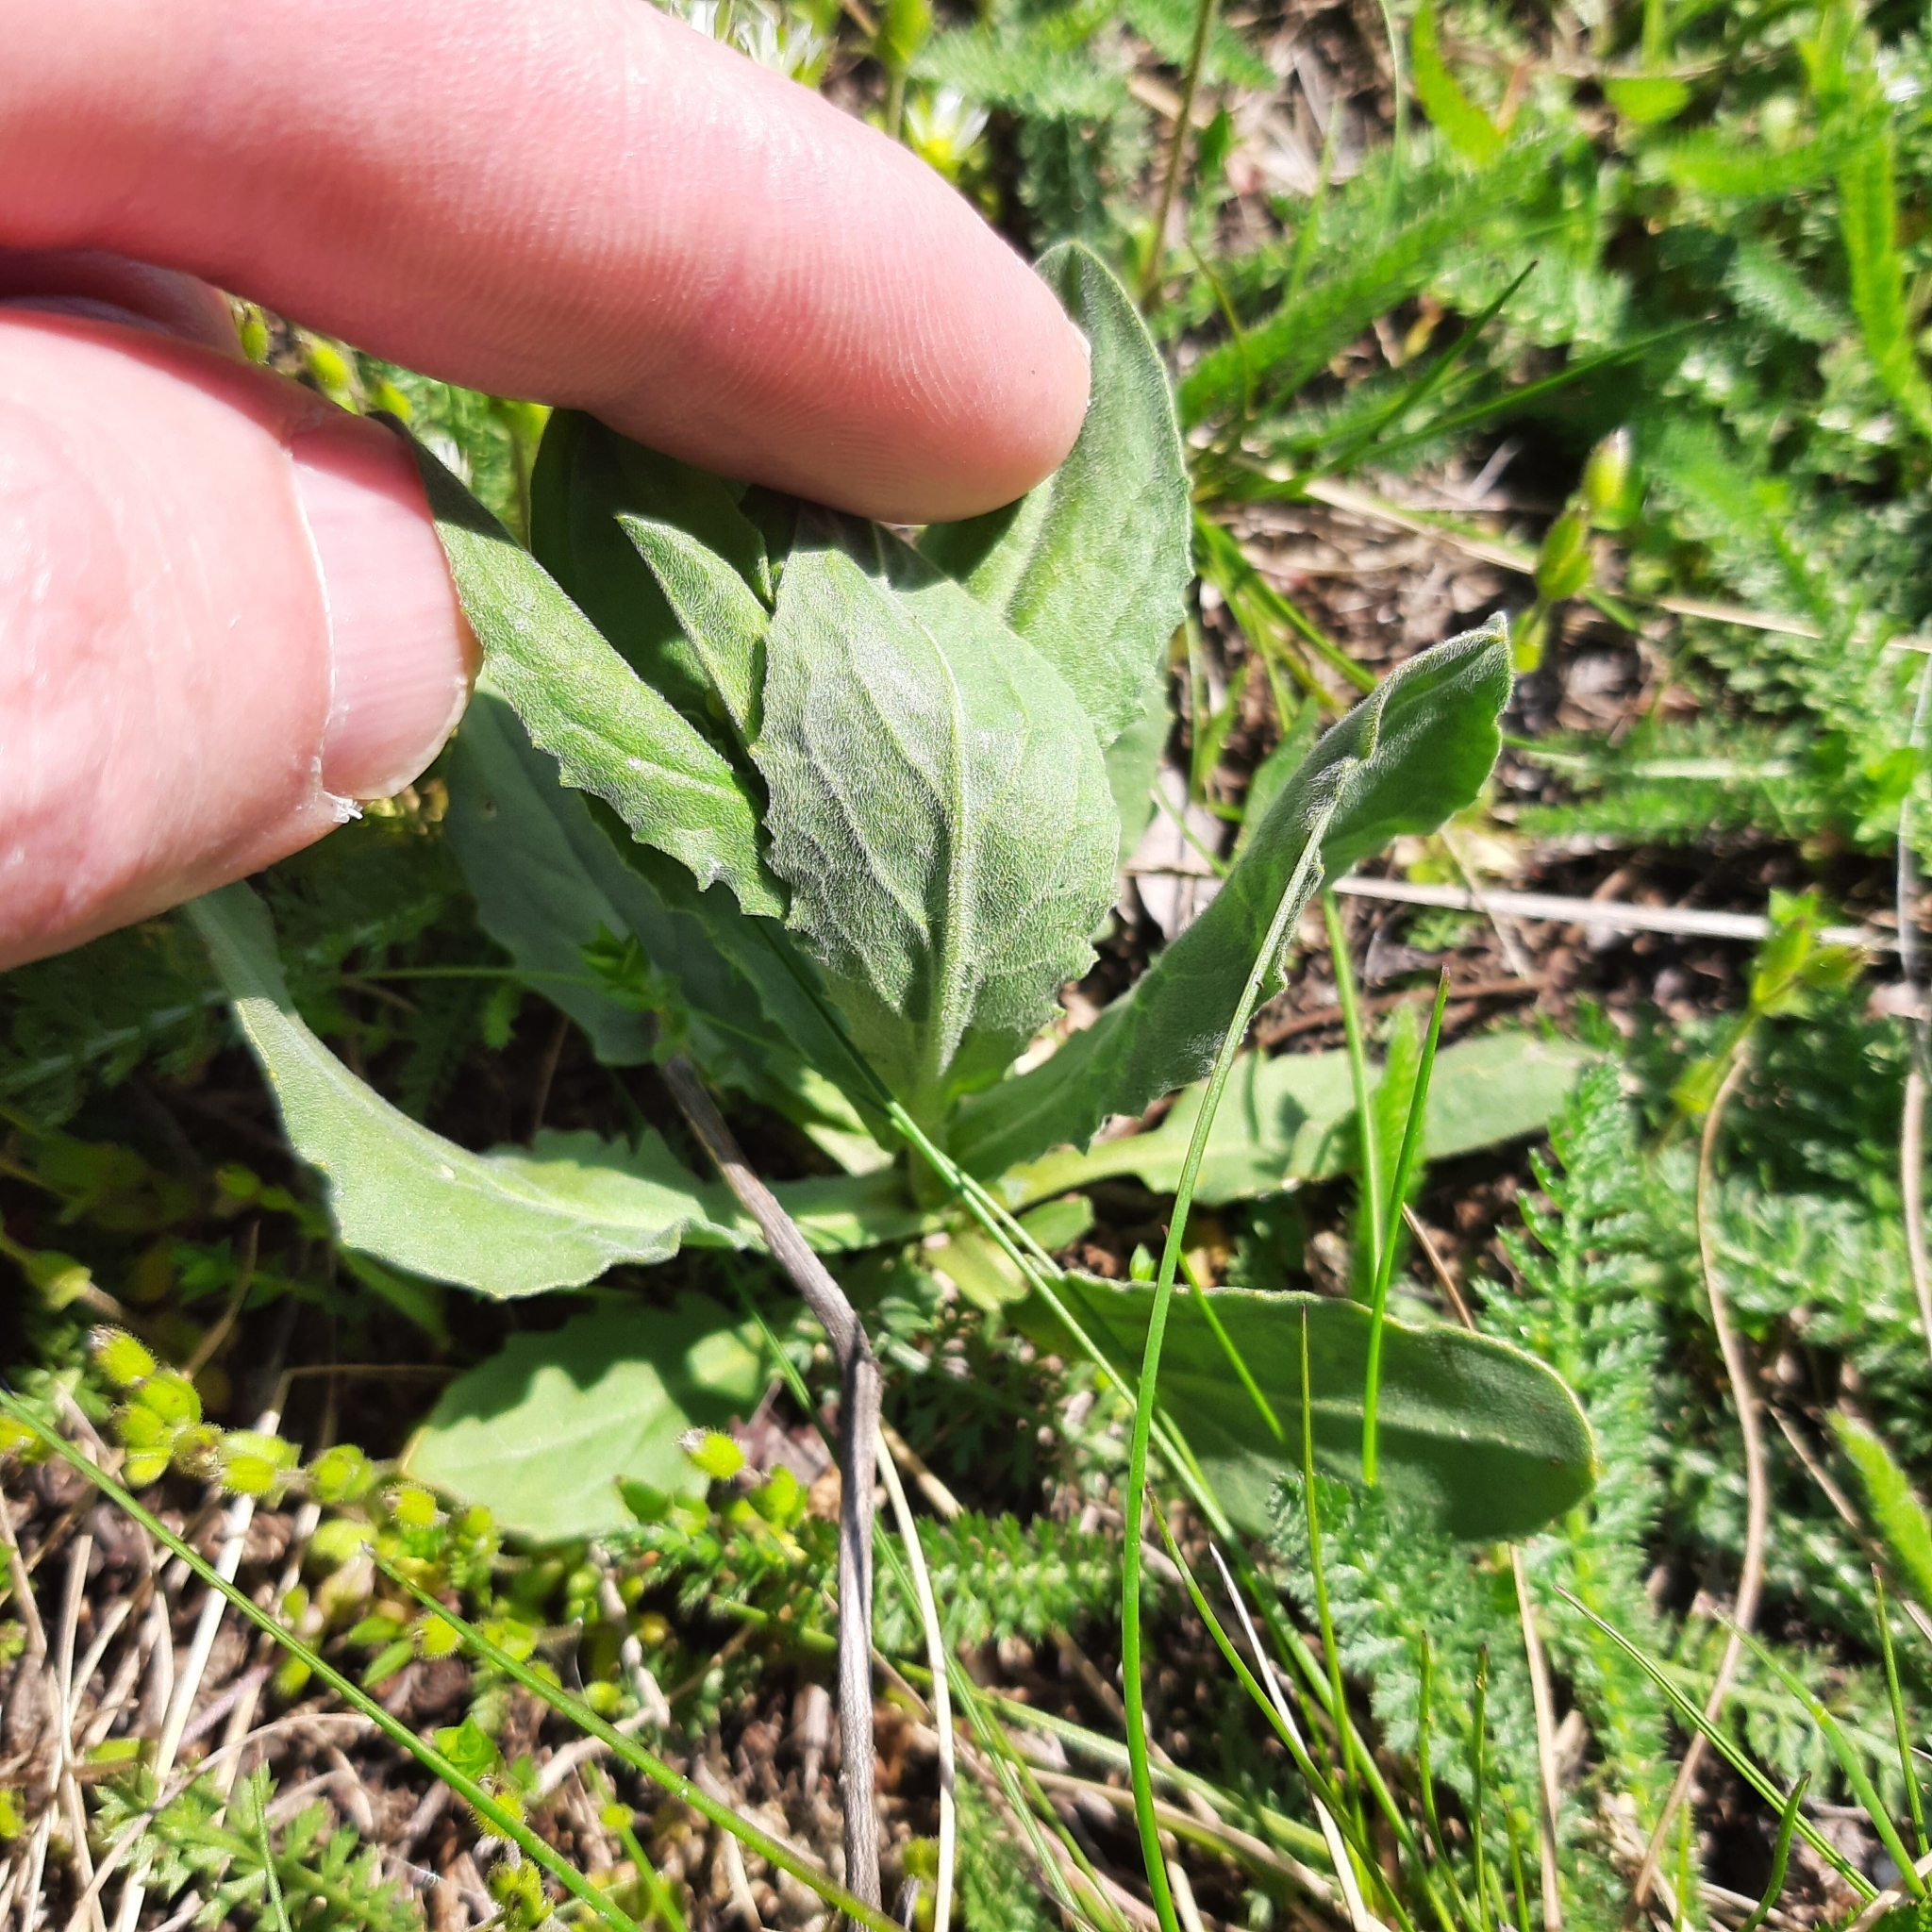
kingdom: Plantae
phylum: Tracheophyta
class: Magnoliopsida
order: Brassicales
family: Brassicaceae
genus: Lepidium
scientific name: Lepidium draba
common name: Hoary cress
